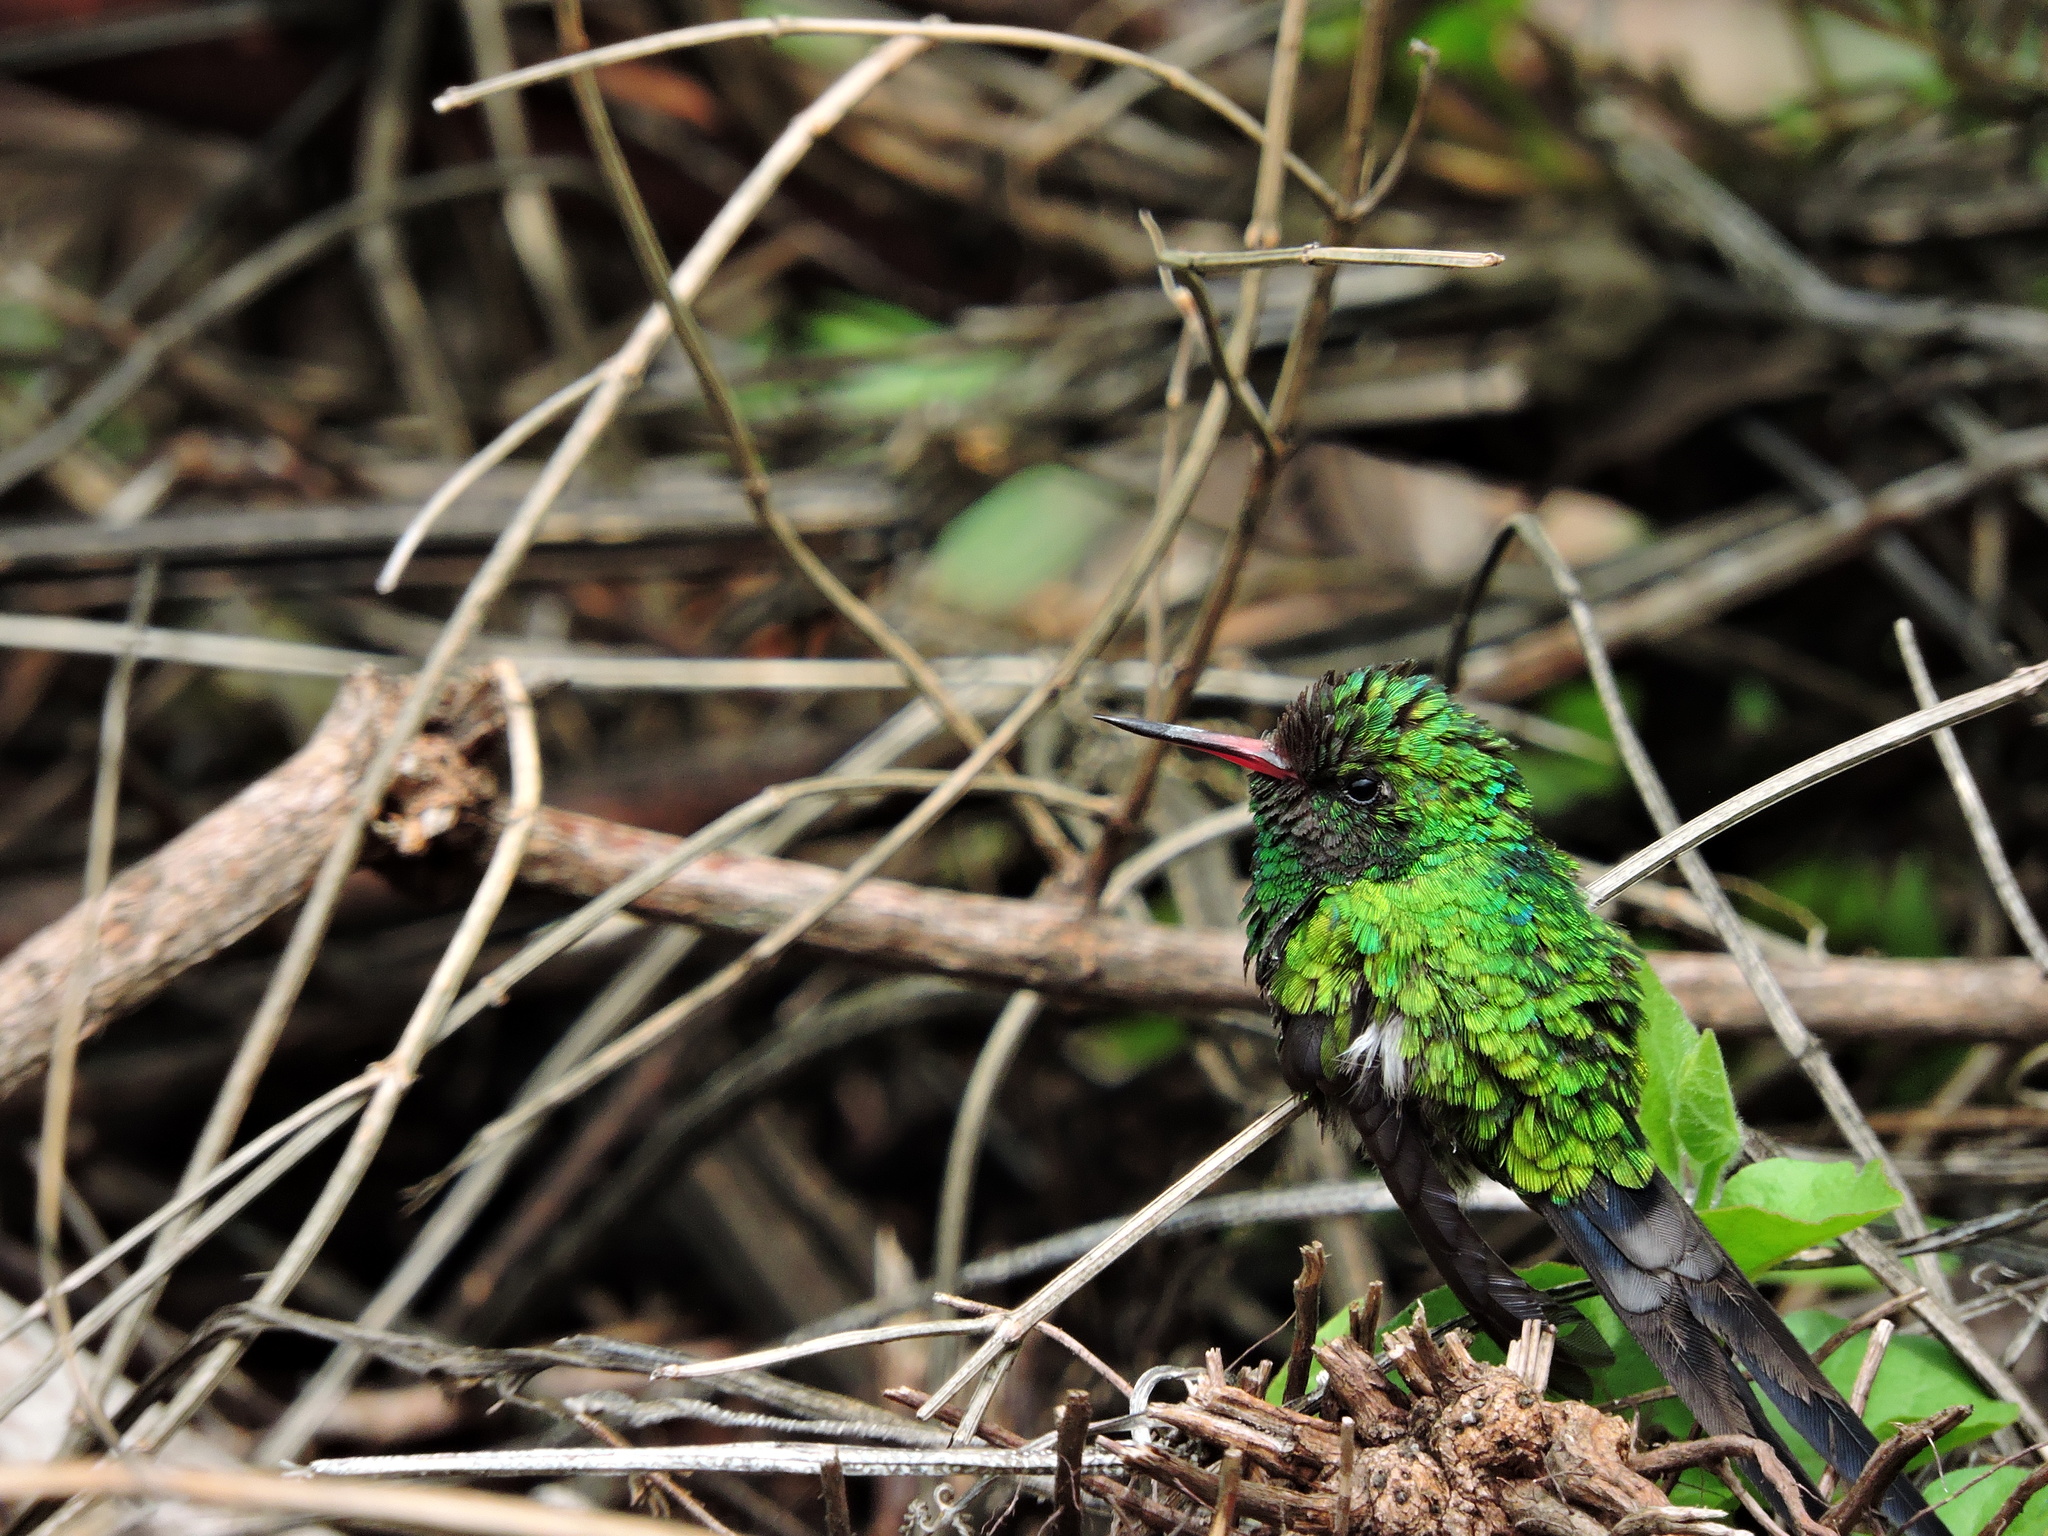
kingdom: Animalia
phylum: Chordata
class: Aves
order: Apodiformes
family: Trochilidae
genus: Cynanthus
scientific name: Cynanthus auriceps
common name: Golden-crowned emerald
